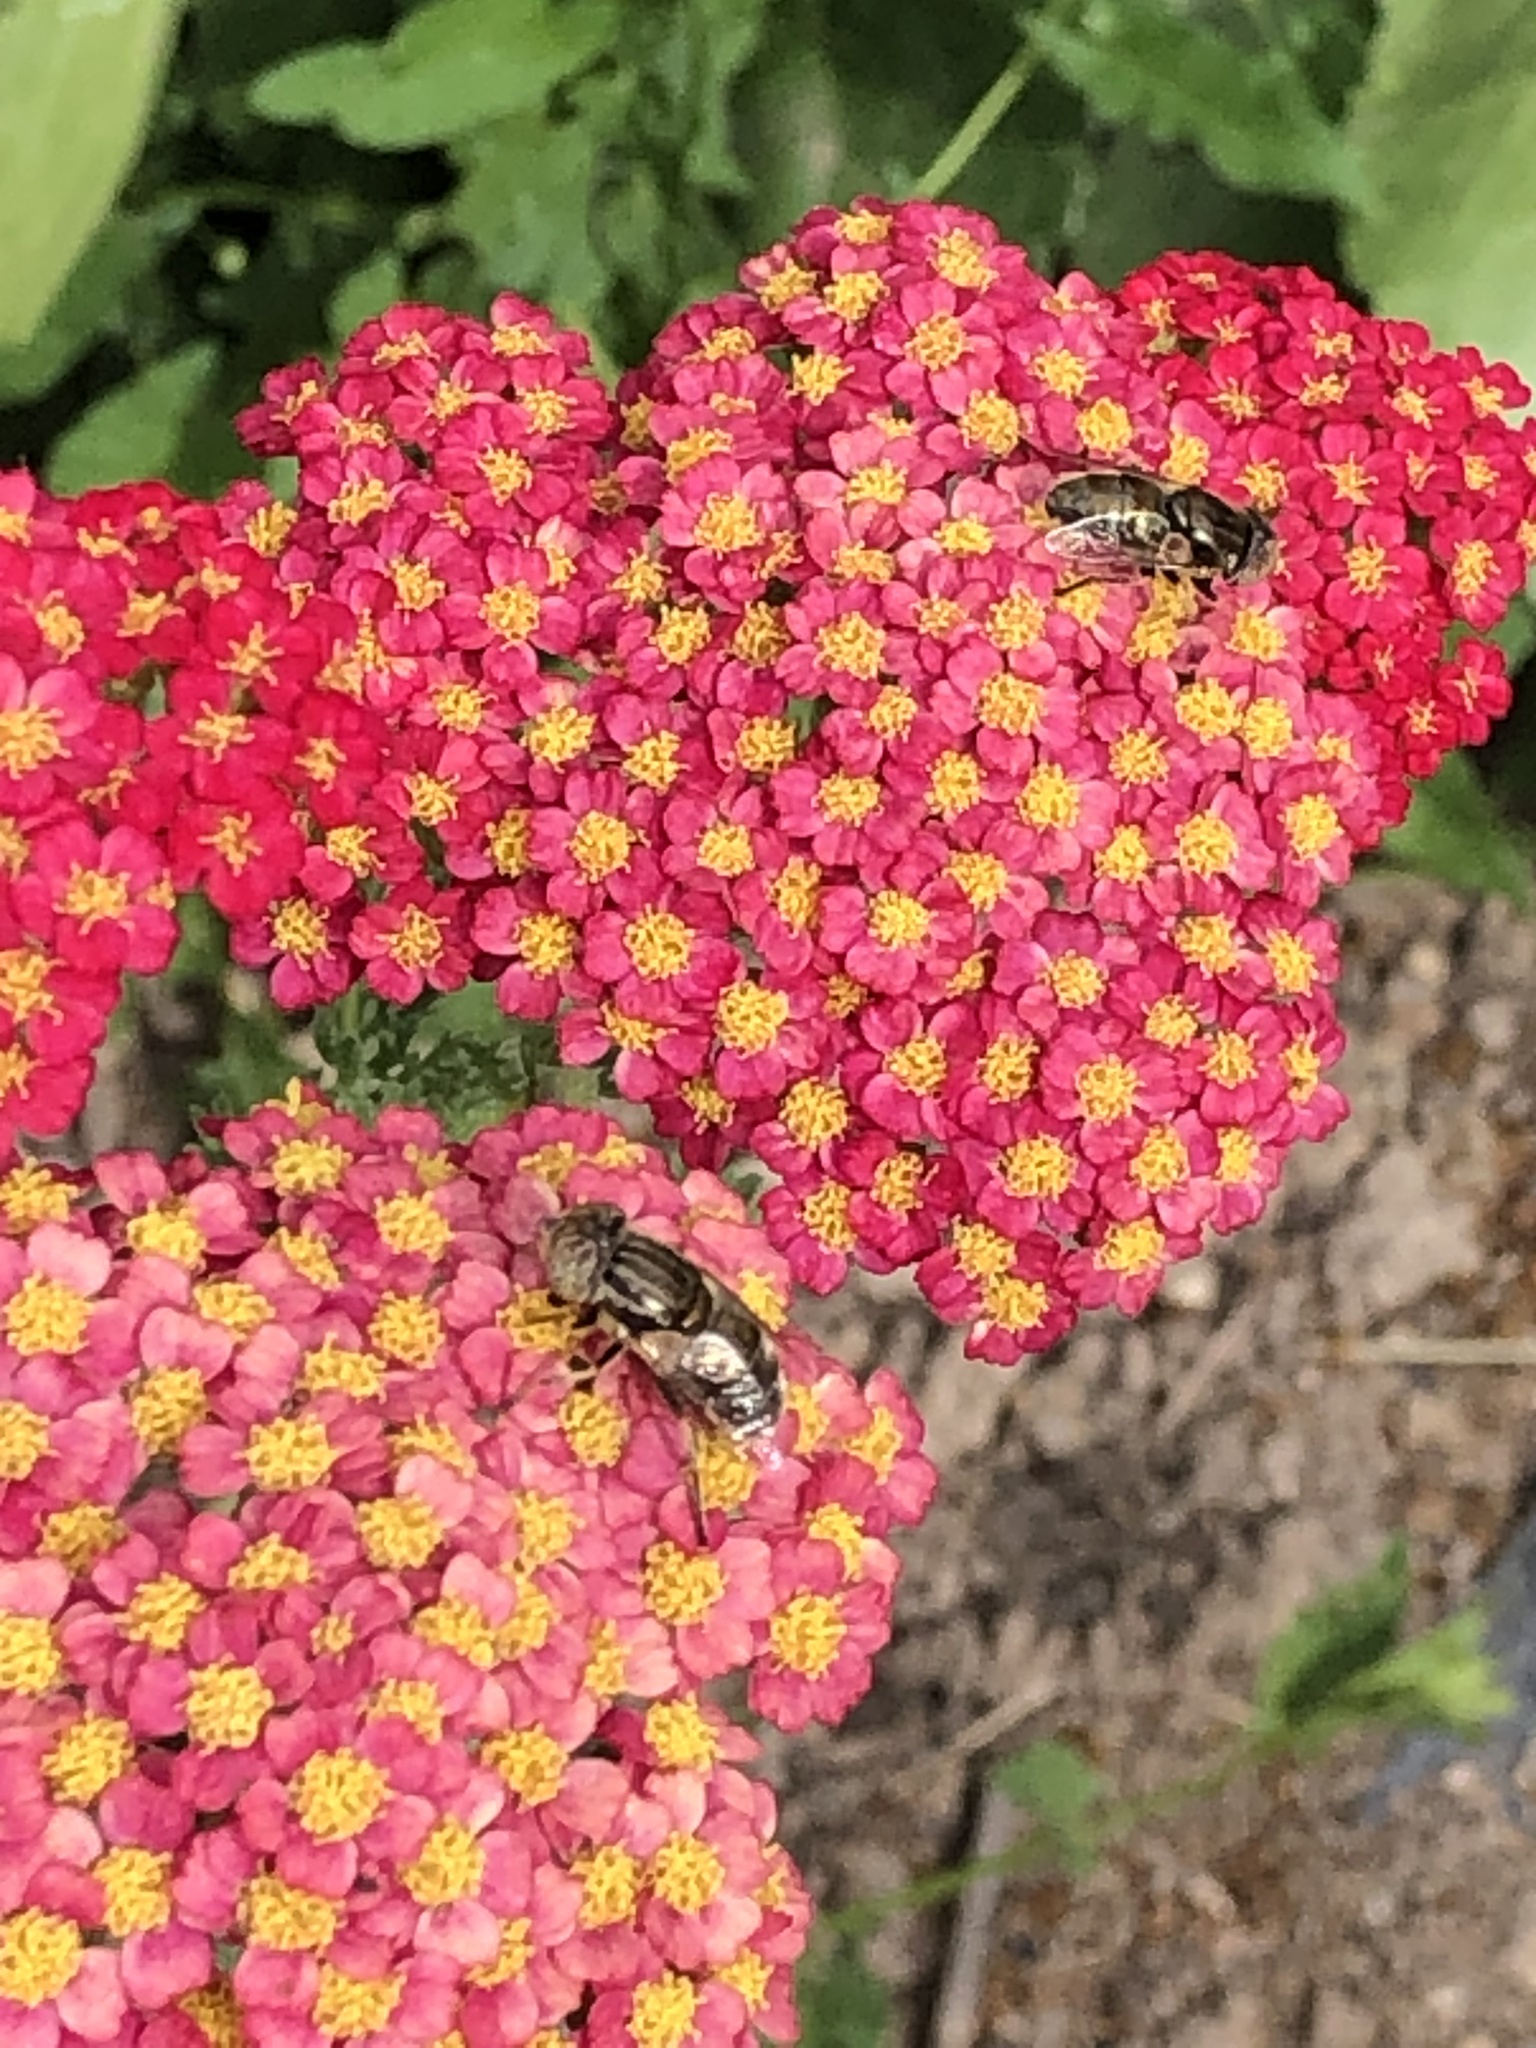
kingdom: Animalia
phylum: Arthropoda
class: Insecta
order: Diptera
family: Syrphidae
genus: Eristalinus
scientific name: Eristalinus aeneus
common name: Syrphid fly
